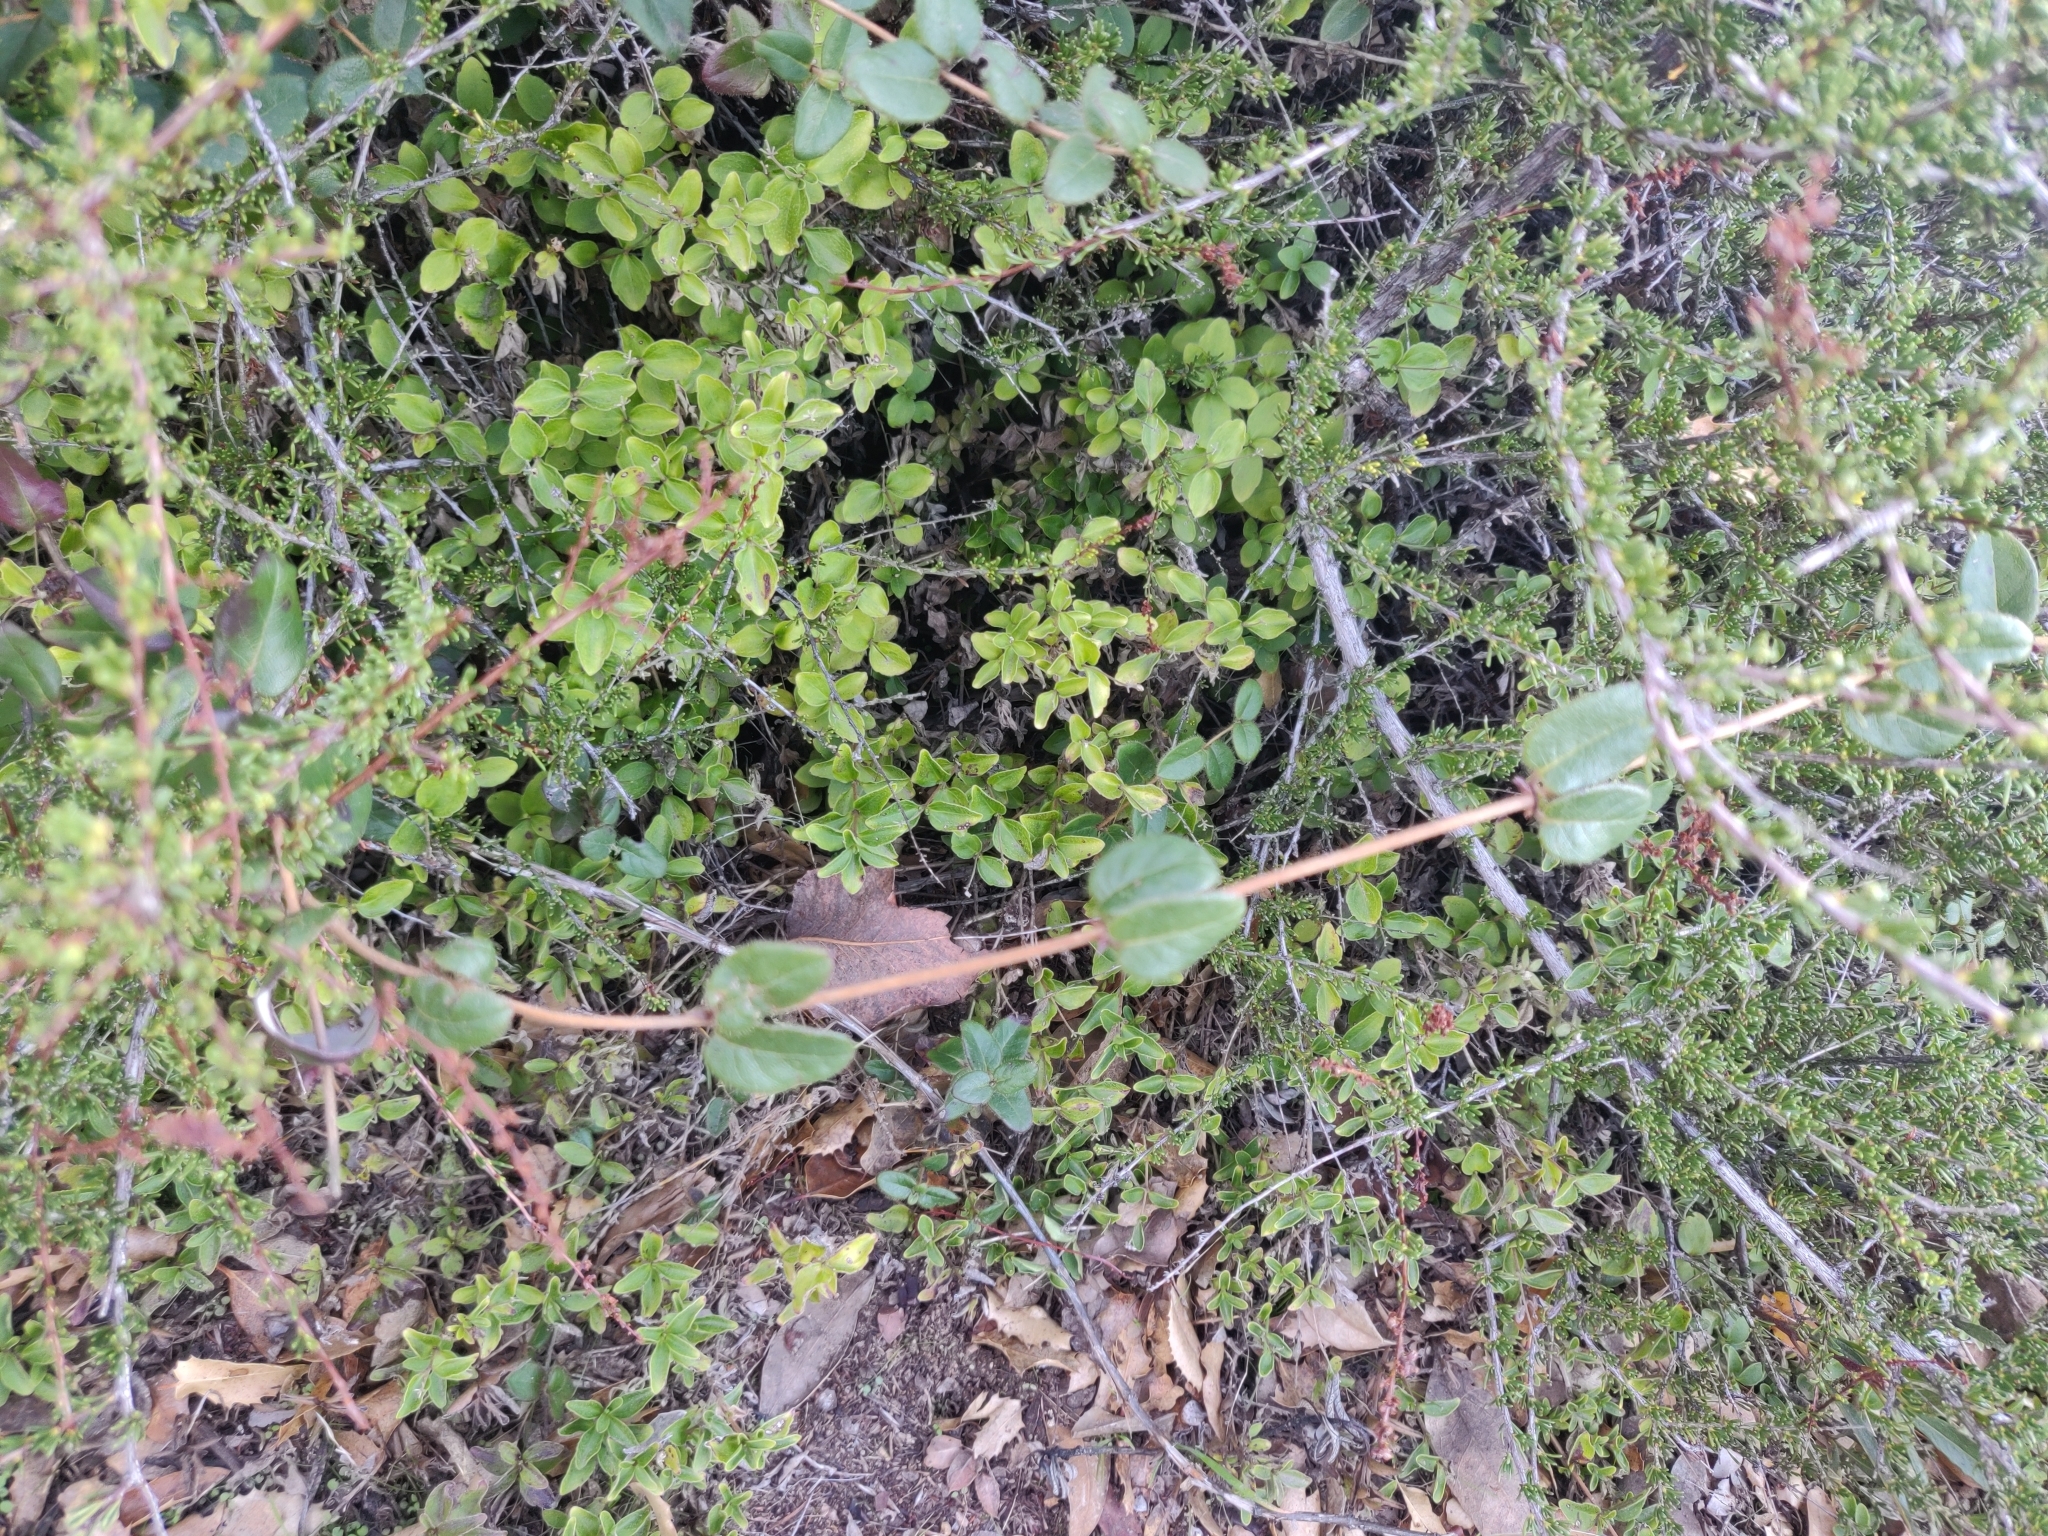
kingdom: Plantae
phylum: Tracheophyta
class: Magnoliopsida
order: Dipsacales
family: Caprifoliaceae
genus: Lonicera
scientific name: Lonicera hispidula
